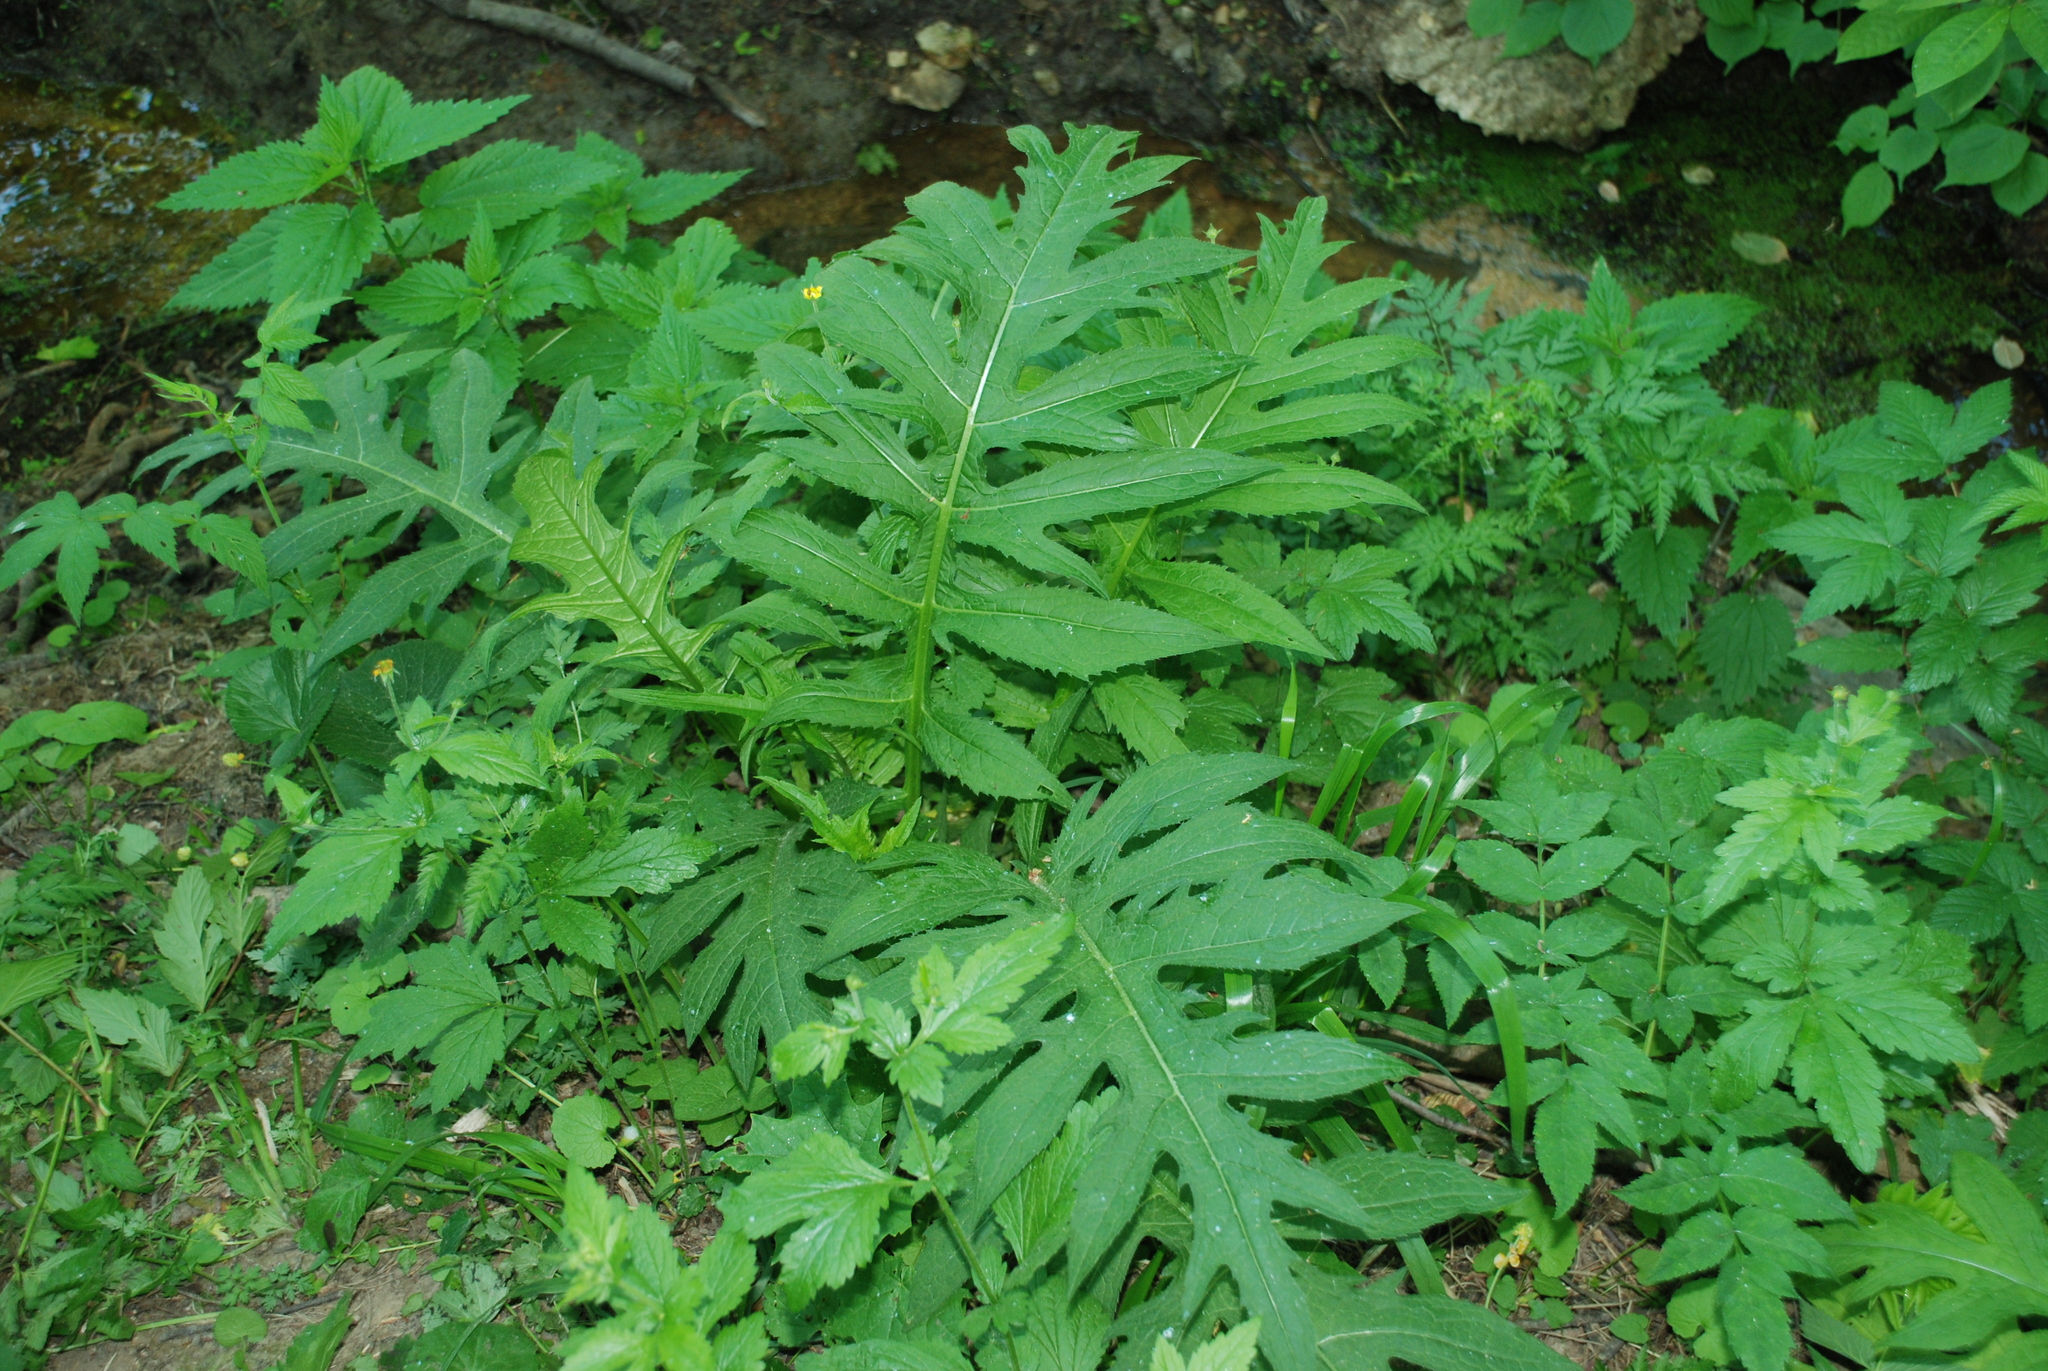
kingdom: Plantae
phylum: Tracheophyta
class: Magnoliopsida
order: Asterales
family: Asteraceae
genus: Cirsium
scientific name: Cirsium oleraceum
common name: Cabbage thistle
